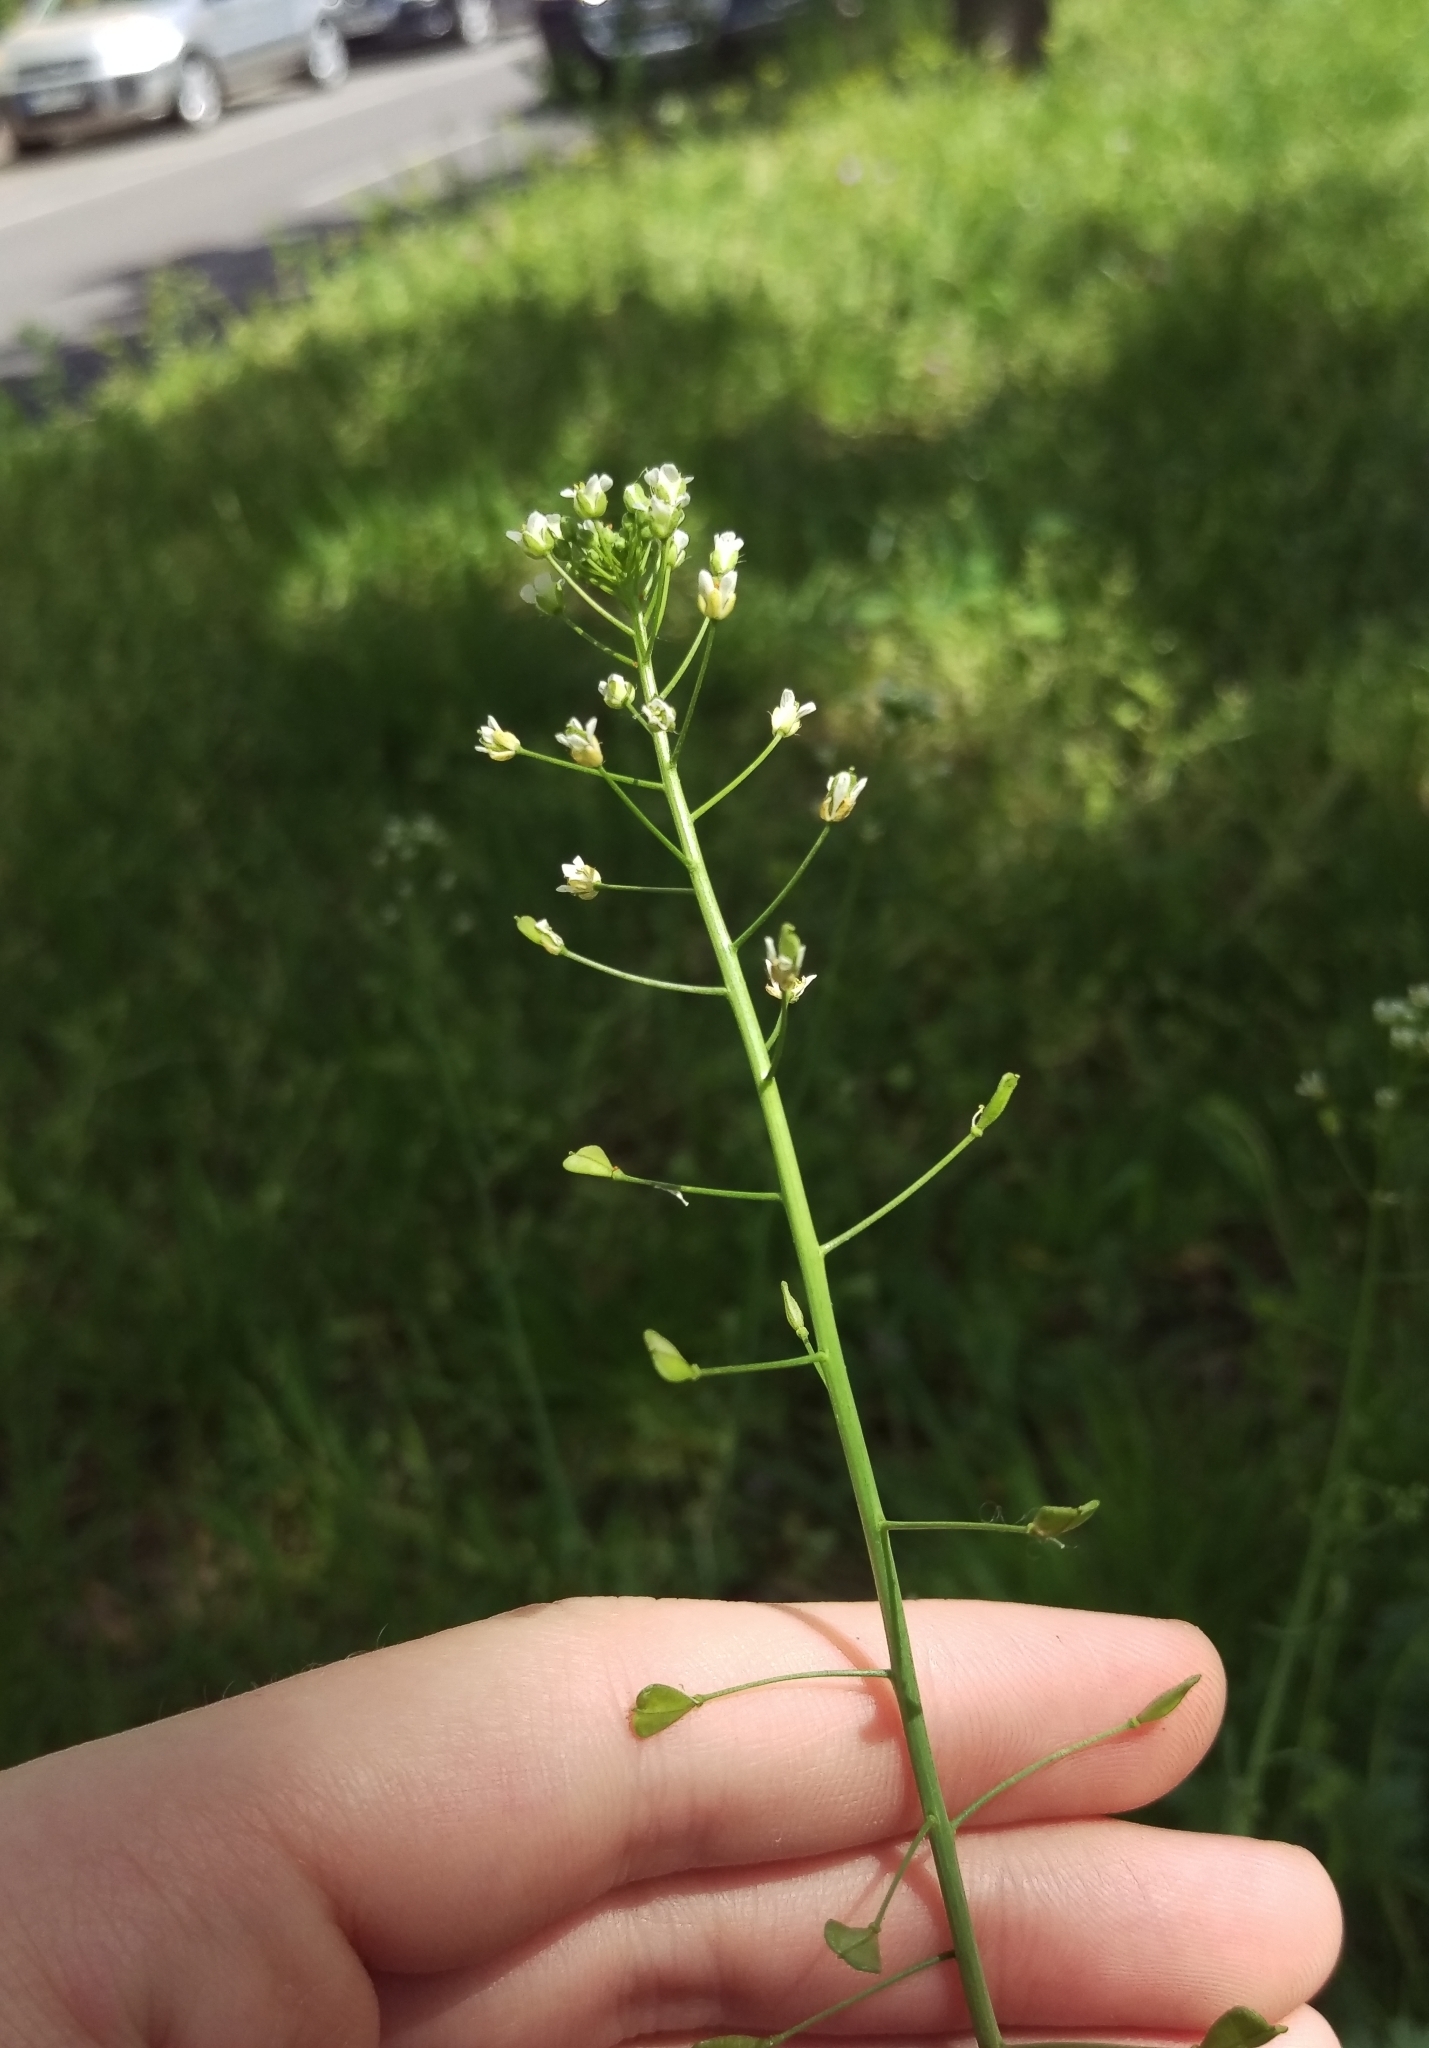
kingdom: Plantae
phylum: Tracheophyta
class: Magnoliopsida
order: Brassicales
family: Brassicaceae
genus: Capsella
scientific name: Capsella bursa-pastoris
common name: Shepherd's purse
